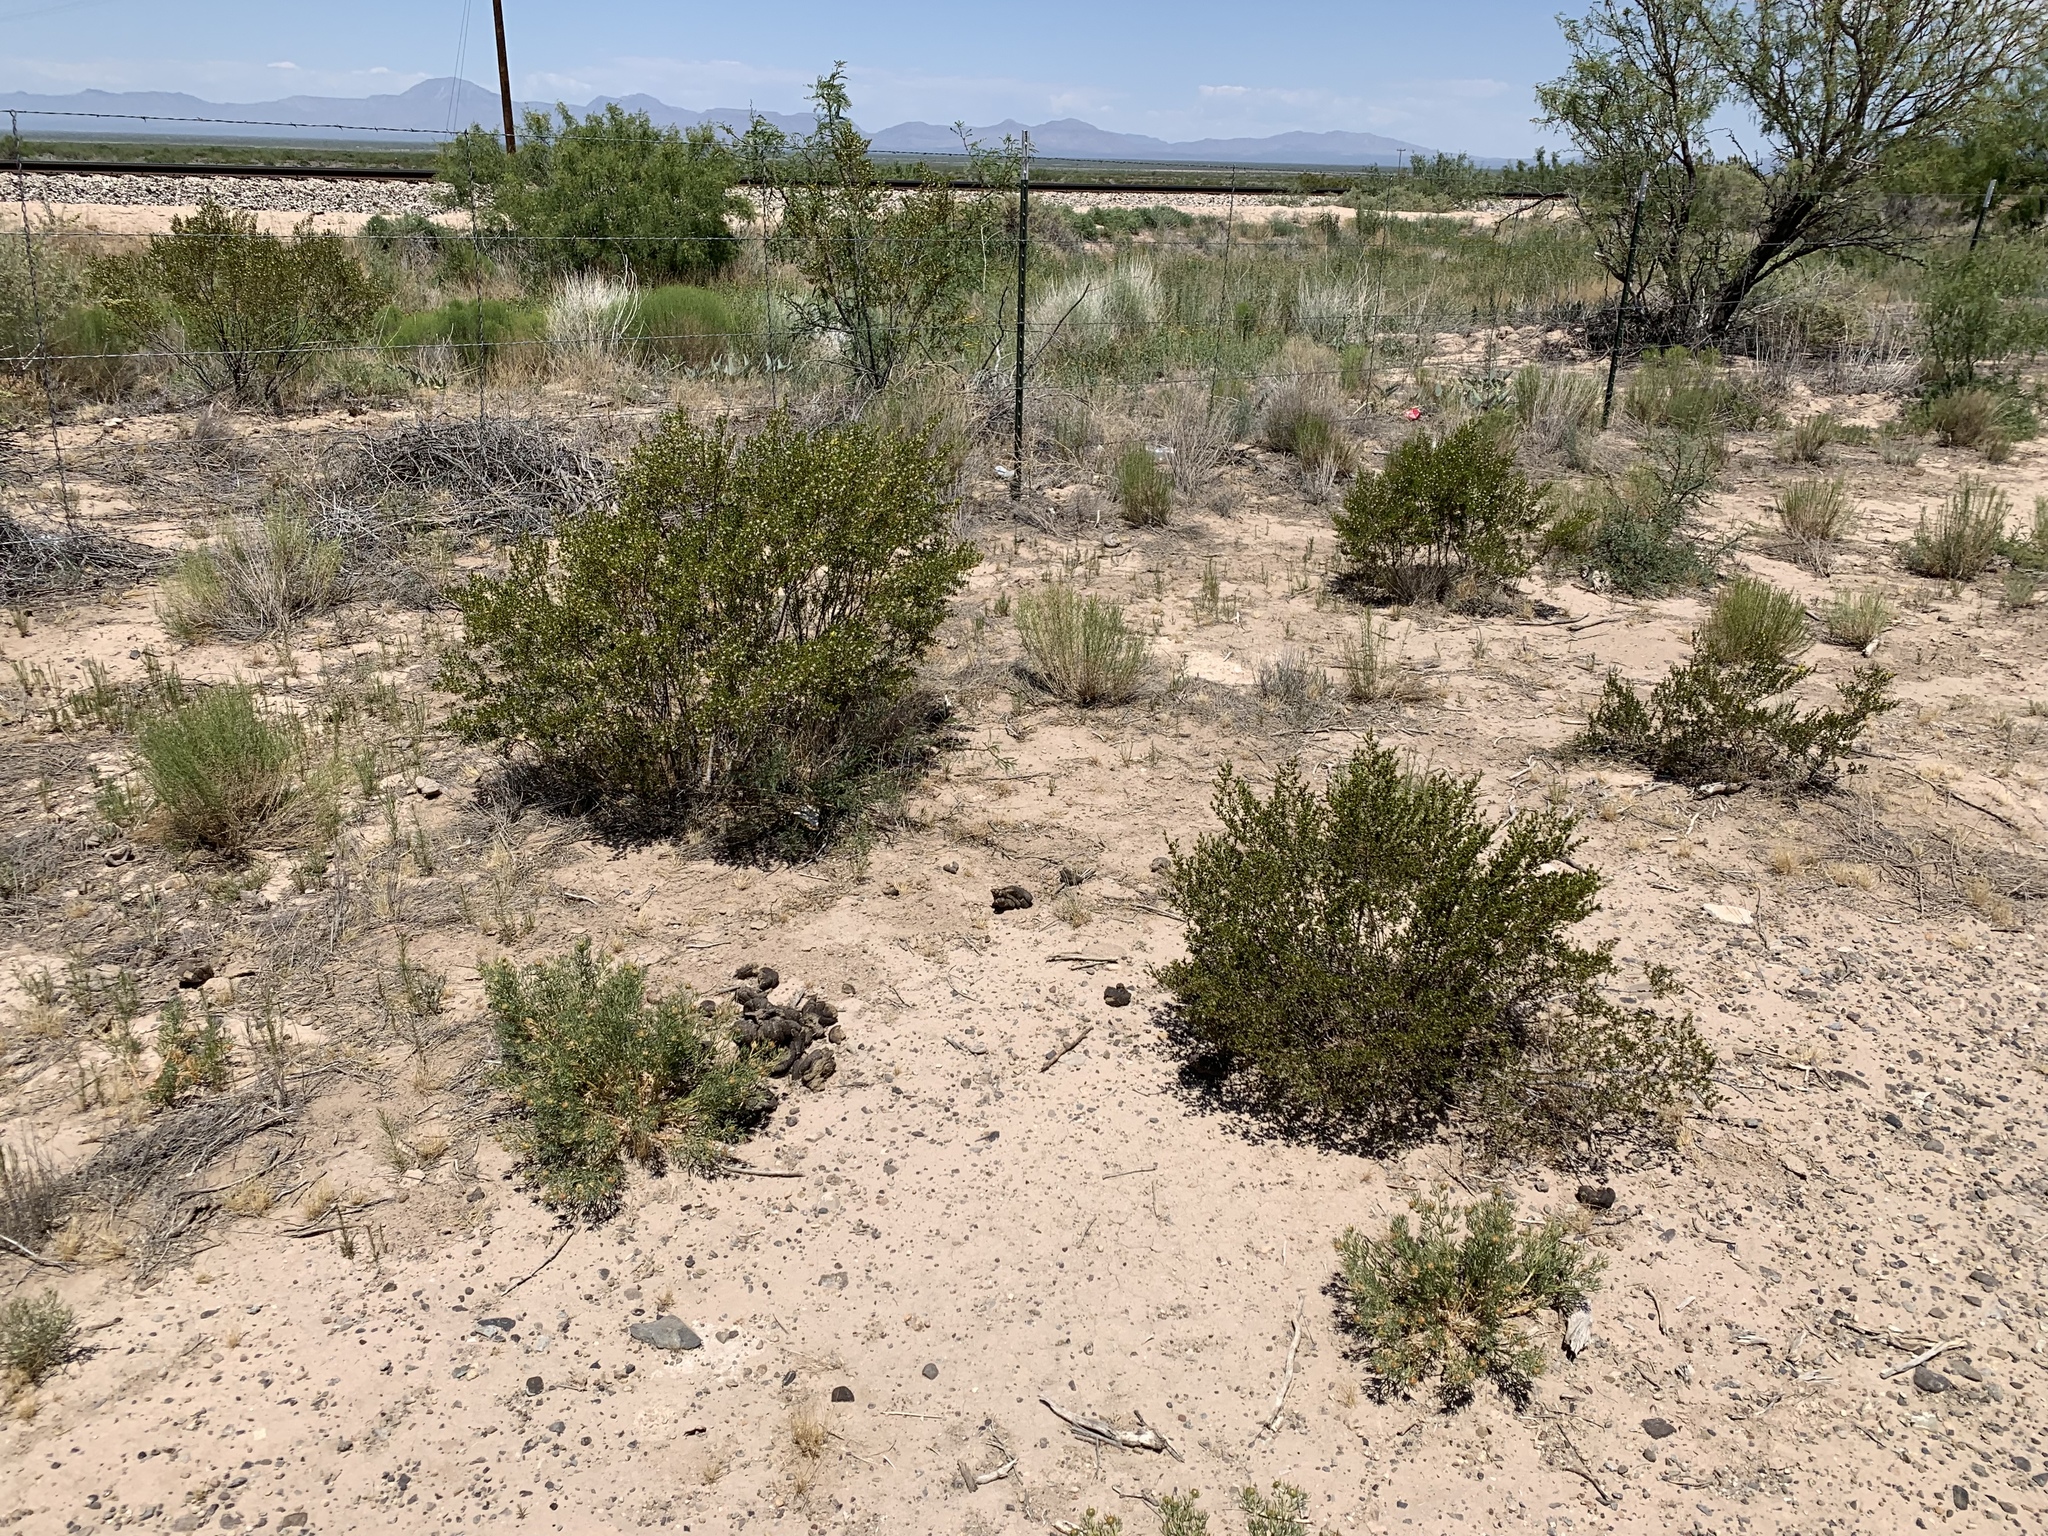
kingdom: Plantae
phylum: Tracheophyta
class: Magnoliopsida
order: Zygophyllales
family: Zygophyllaceae
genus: Larrea
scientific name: Larrea tridentata
